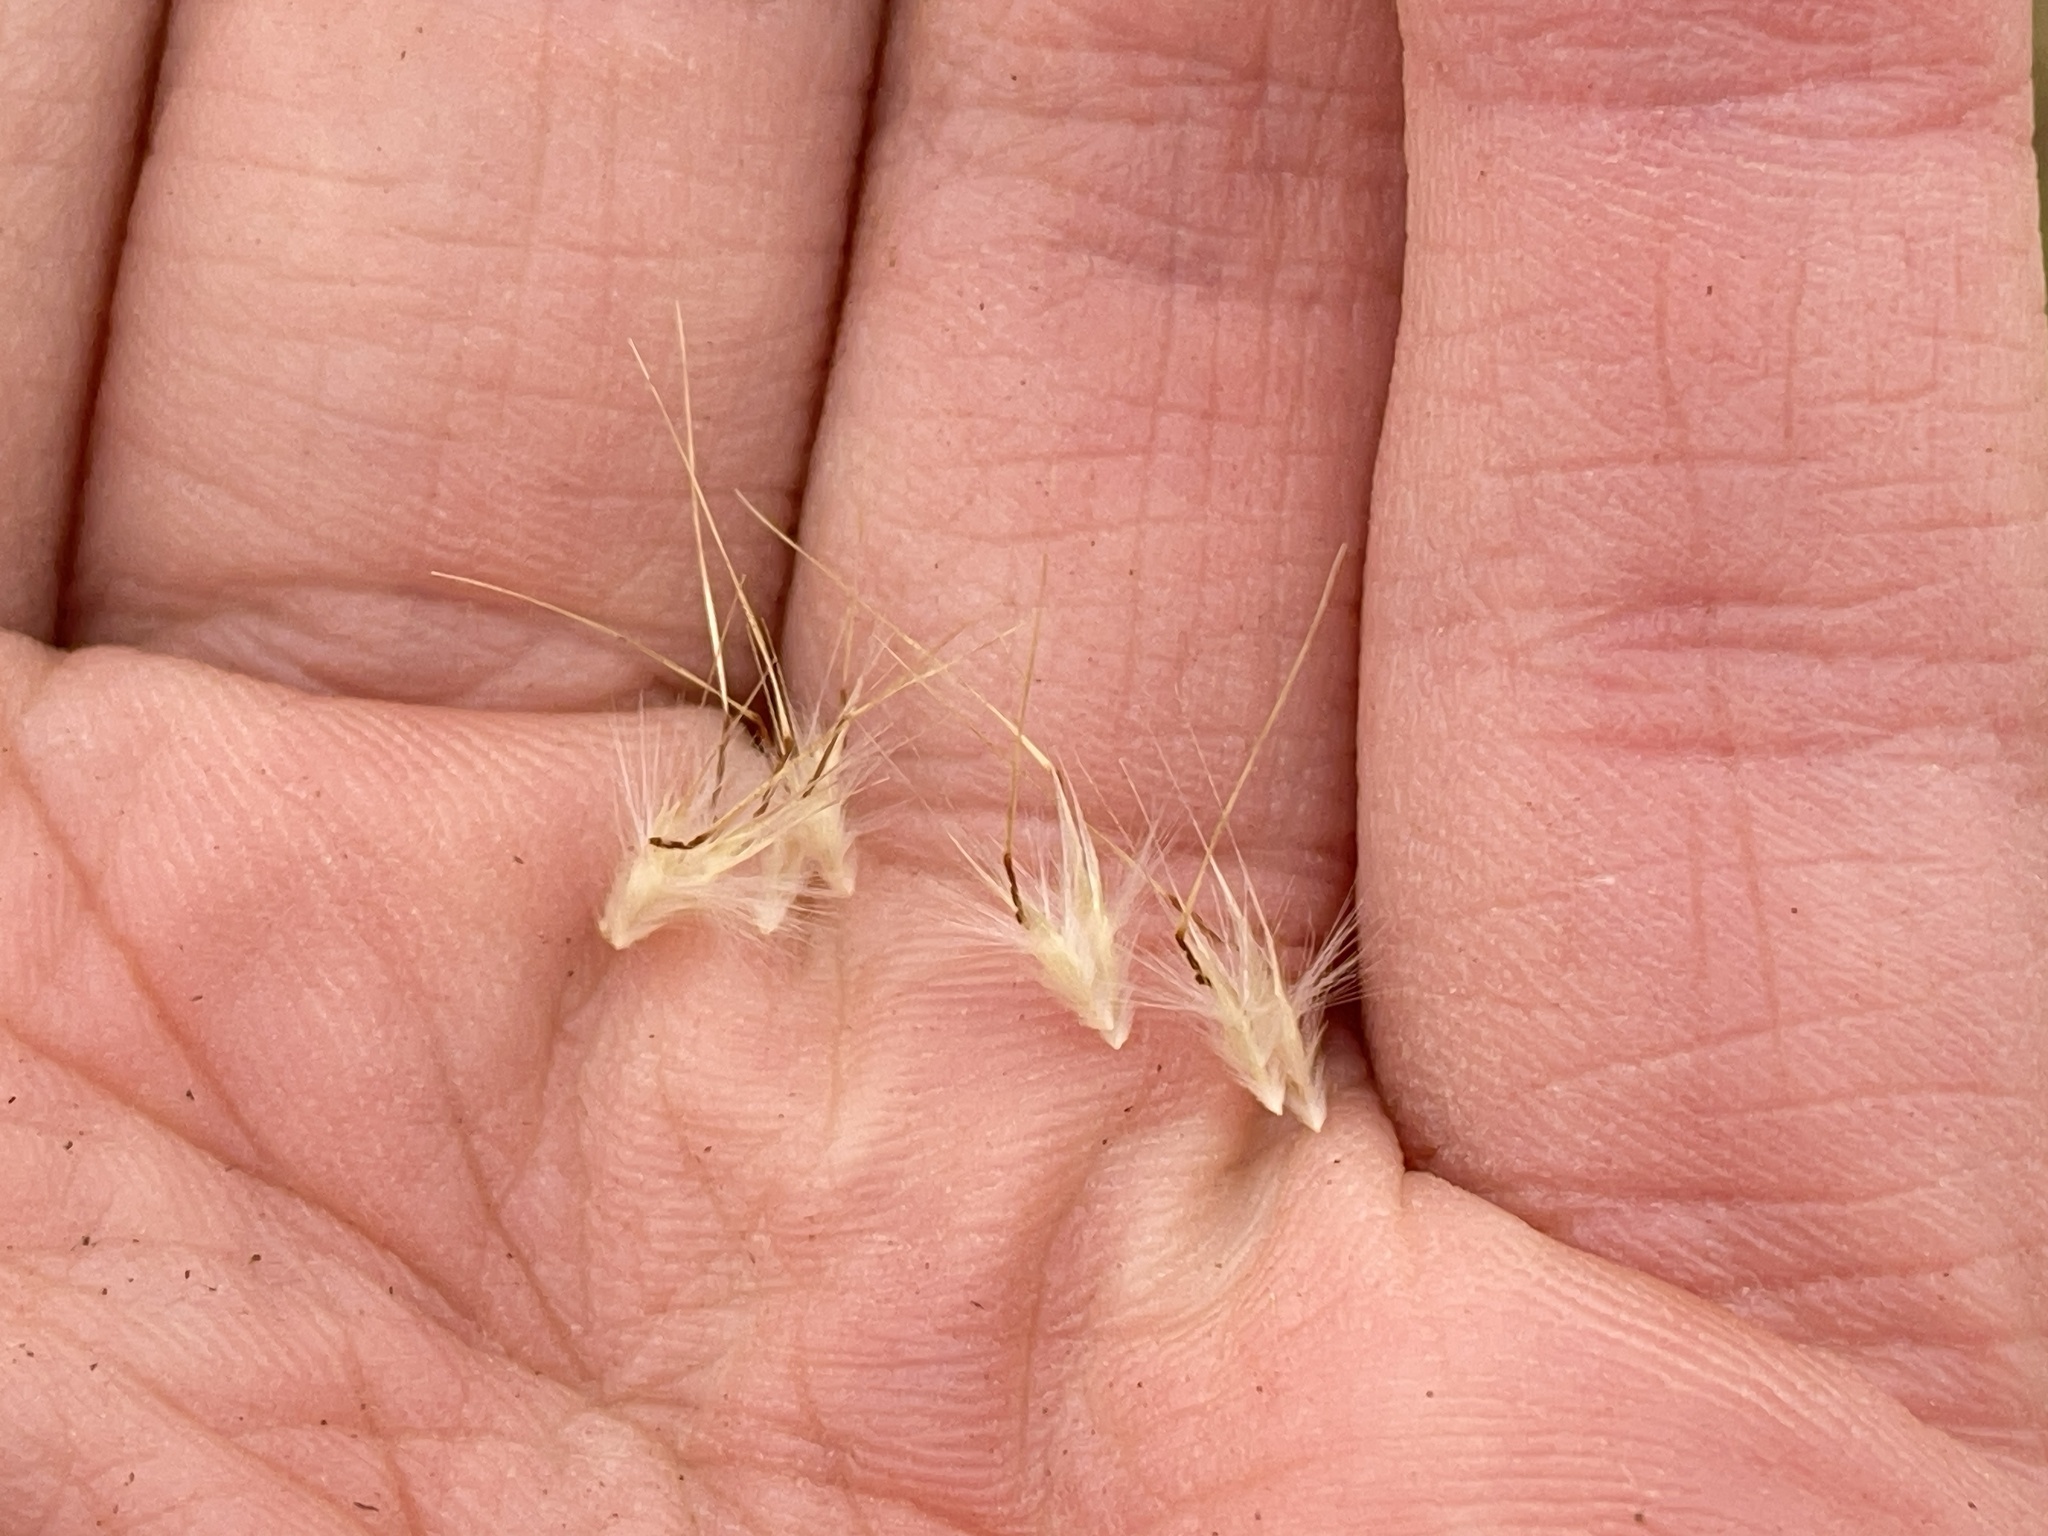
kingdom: Plantae
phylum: Tracheophyta
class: Liliopsida
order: Poales
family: Poaceae
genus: Rytidosperma
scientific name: Rytidosperma setaceum
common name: Small-flower wallaby grass
